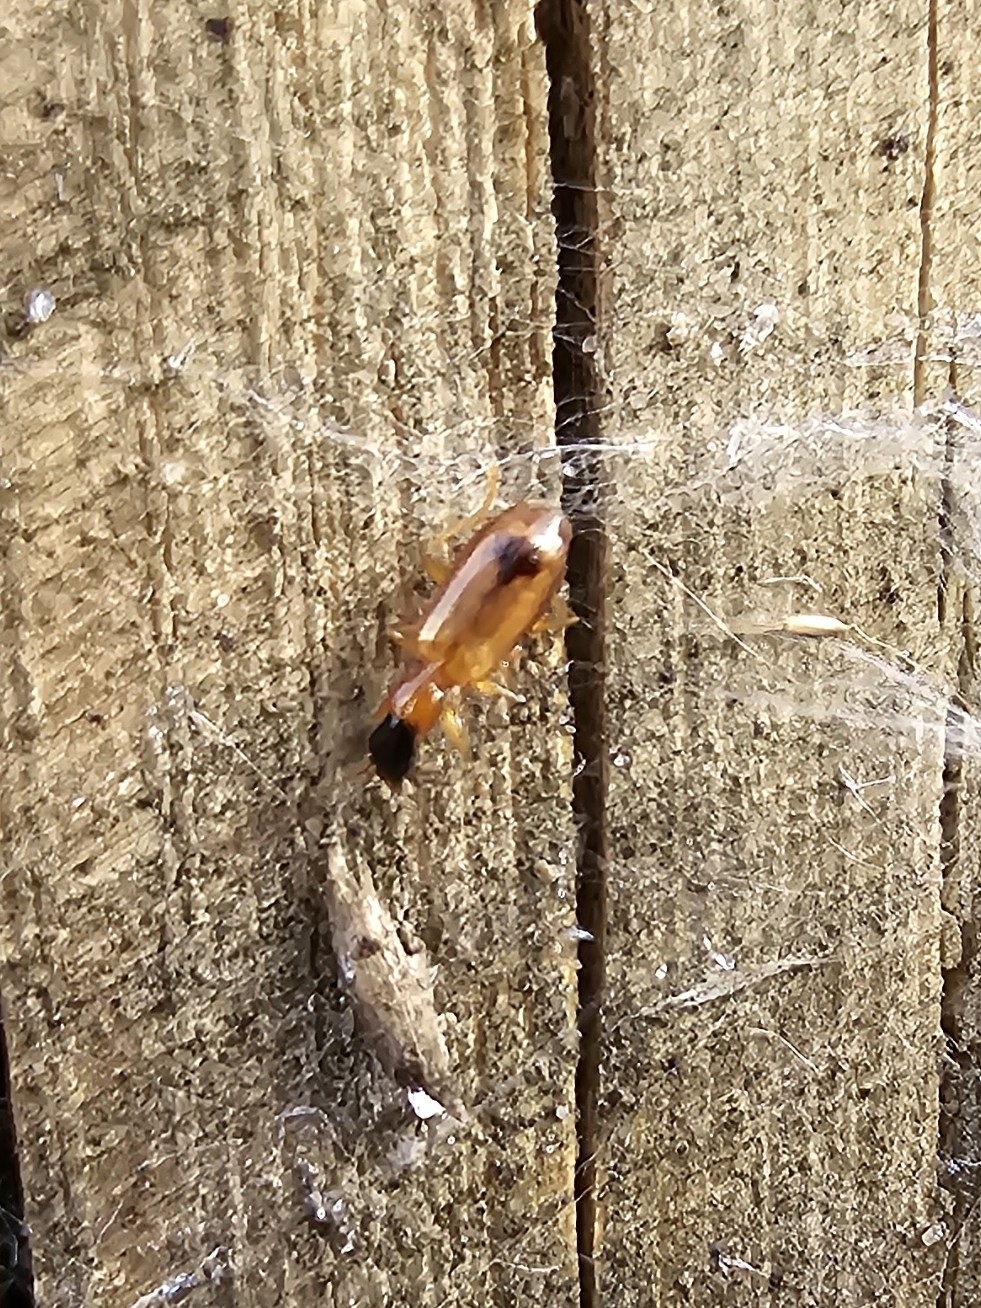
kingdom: Animalia
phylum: Arthropoda
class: Insecta
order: Coleoptera
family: Carabidae
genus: Demetrias
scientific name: Demetrias monostigma
